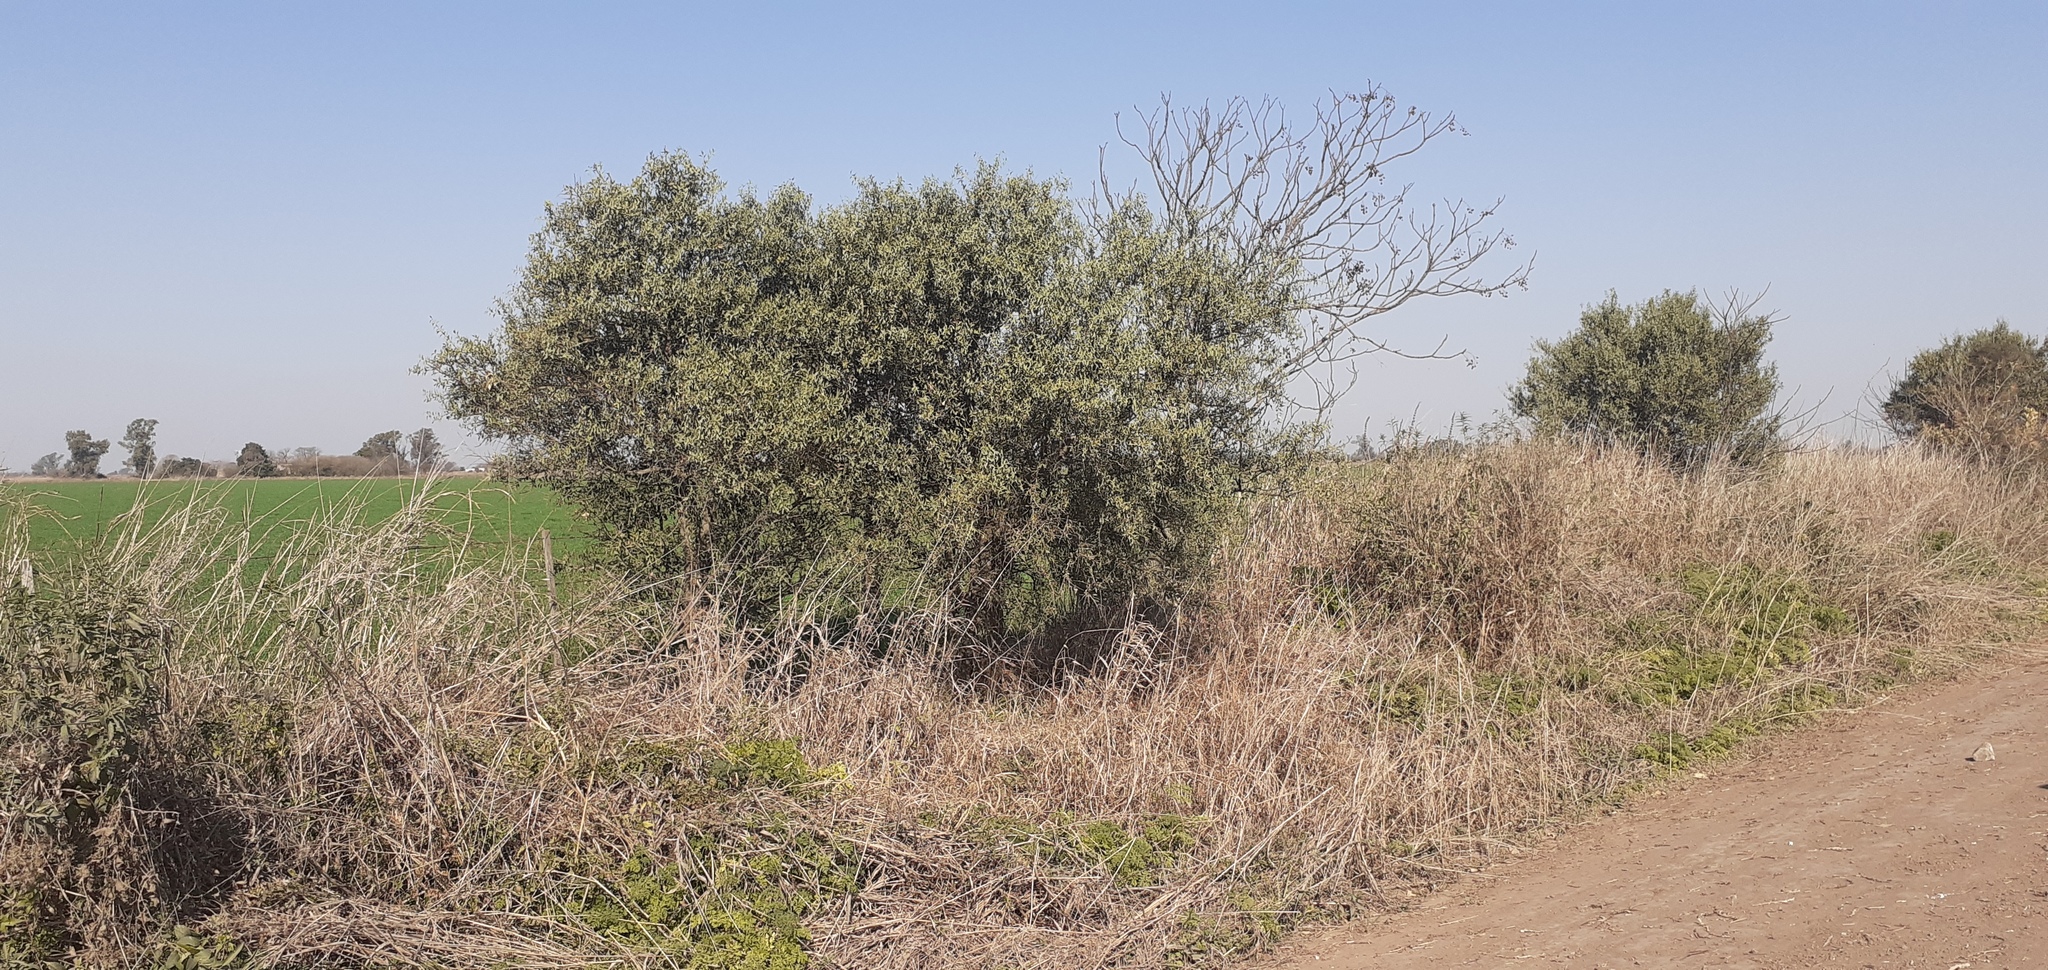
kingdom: Plantae
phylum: Tracheophyta
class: Magnoliopsida
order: Santalales
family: Cervantesiaceae
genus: Jodina
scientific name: Jodina rhombifolia
